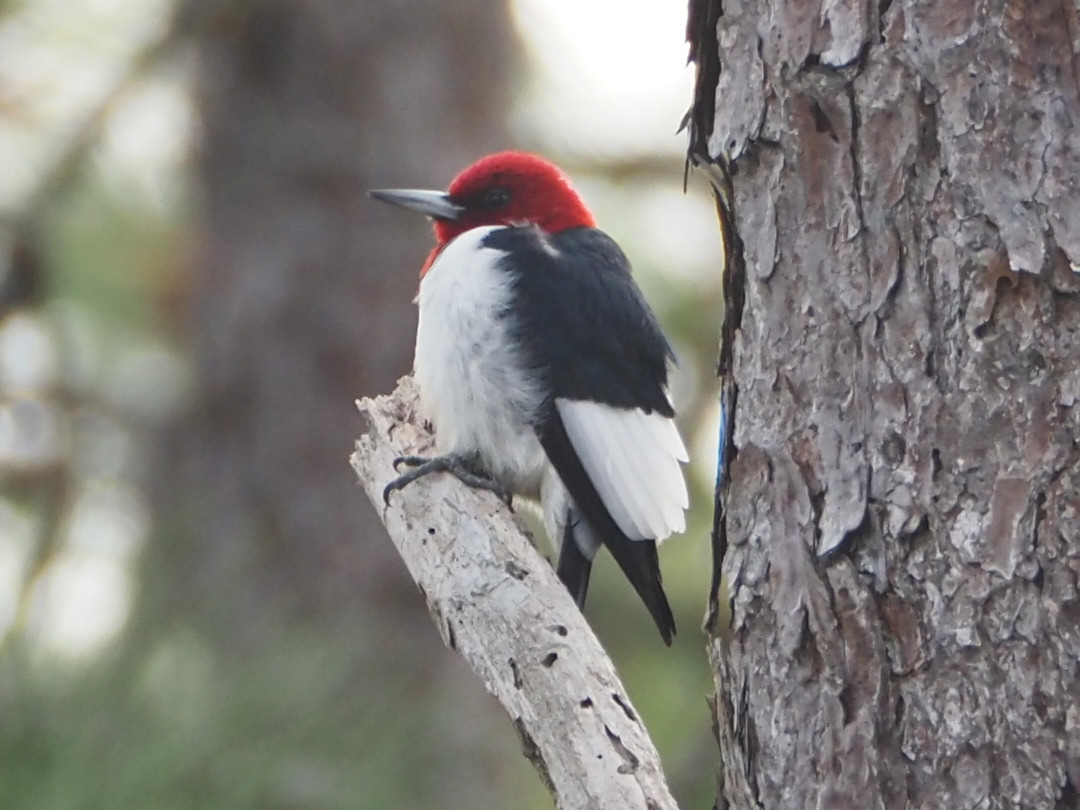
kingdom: Animalia
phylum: Chordata
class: Aves
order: Piciformes
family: Picidae
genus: Melanerpes
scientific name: Melanerpes erythrocephalus
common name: Red-headed woodpecker
